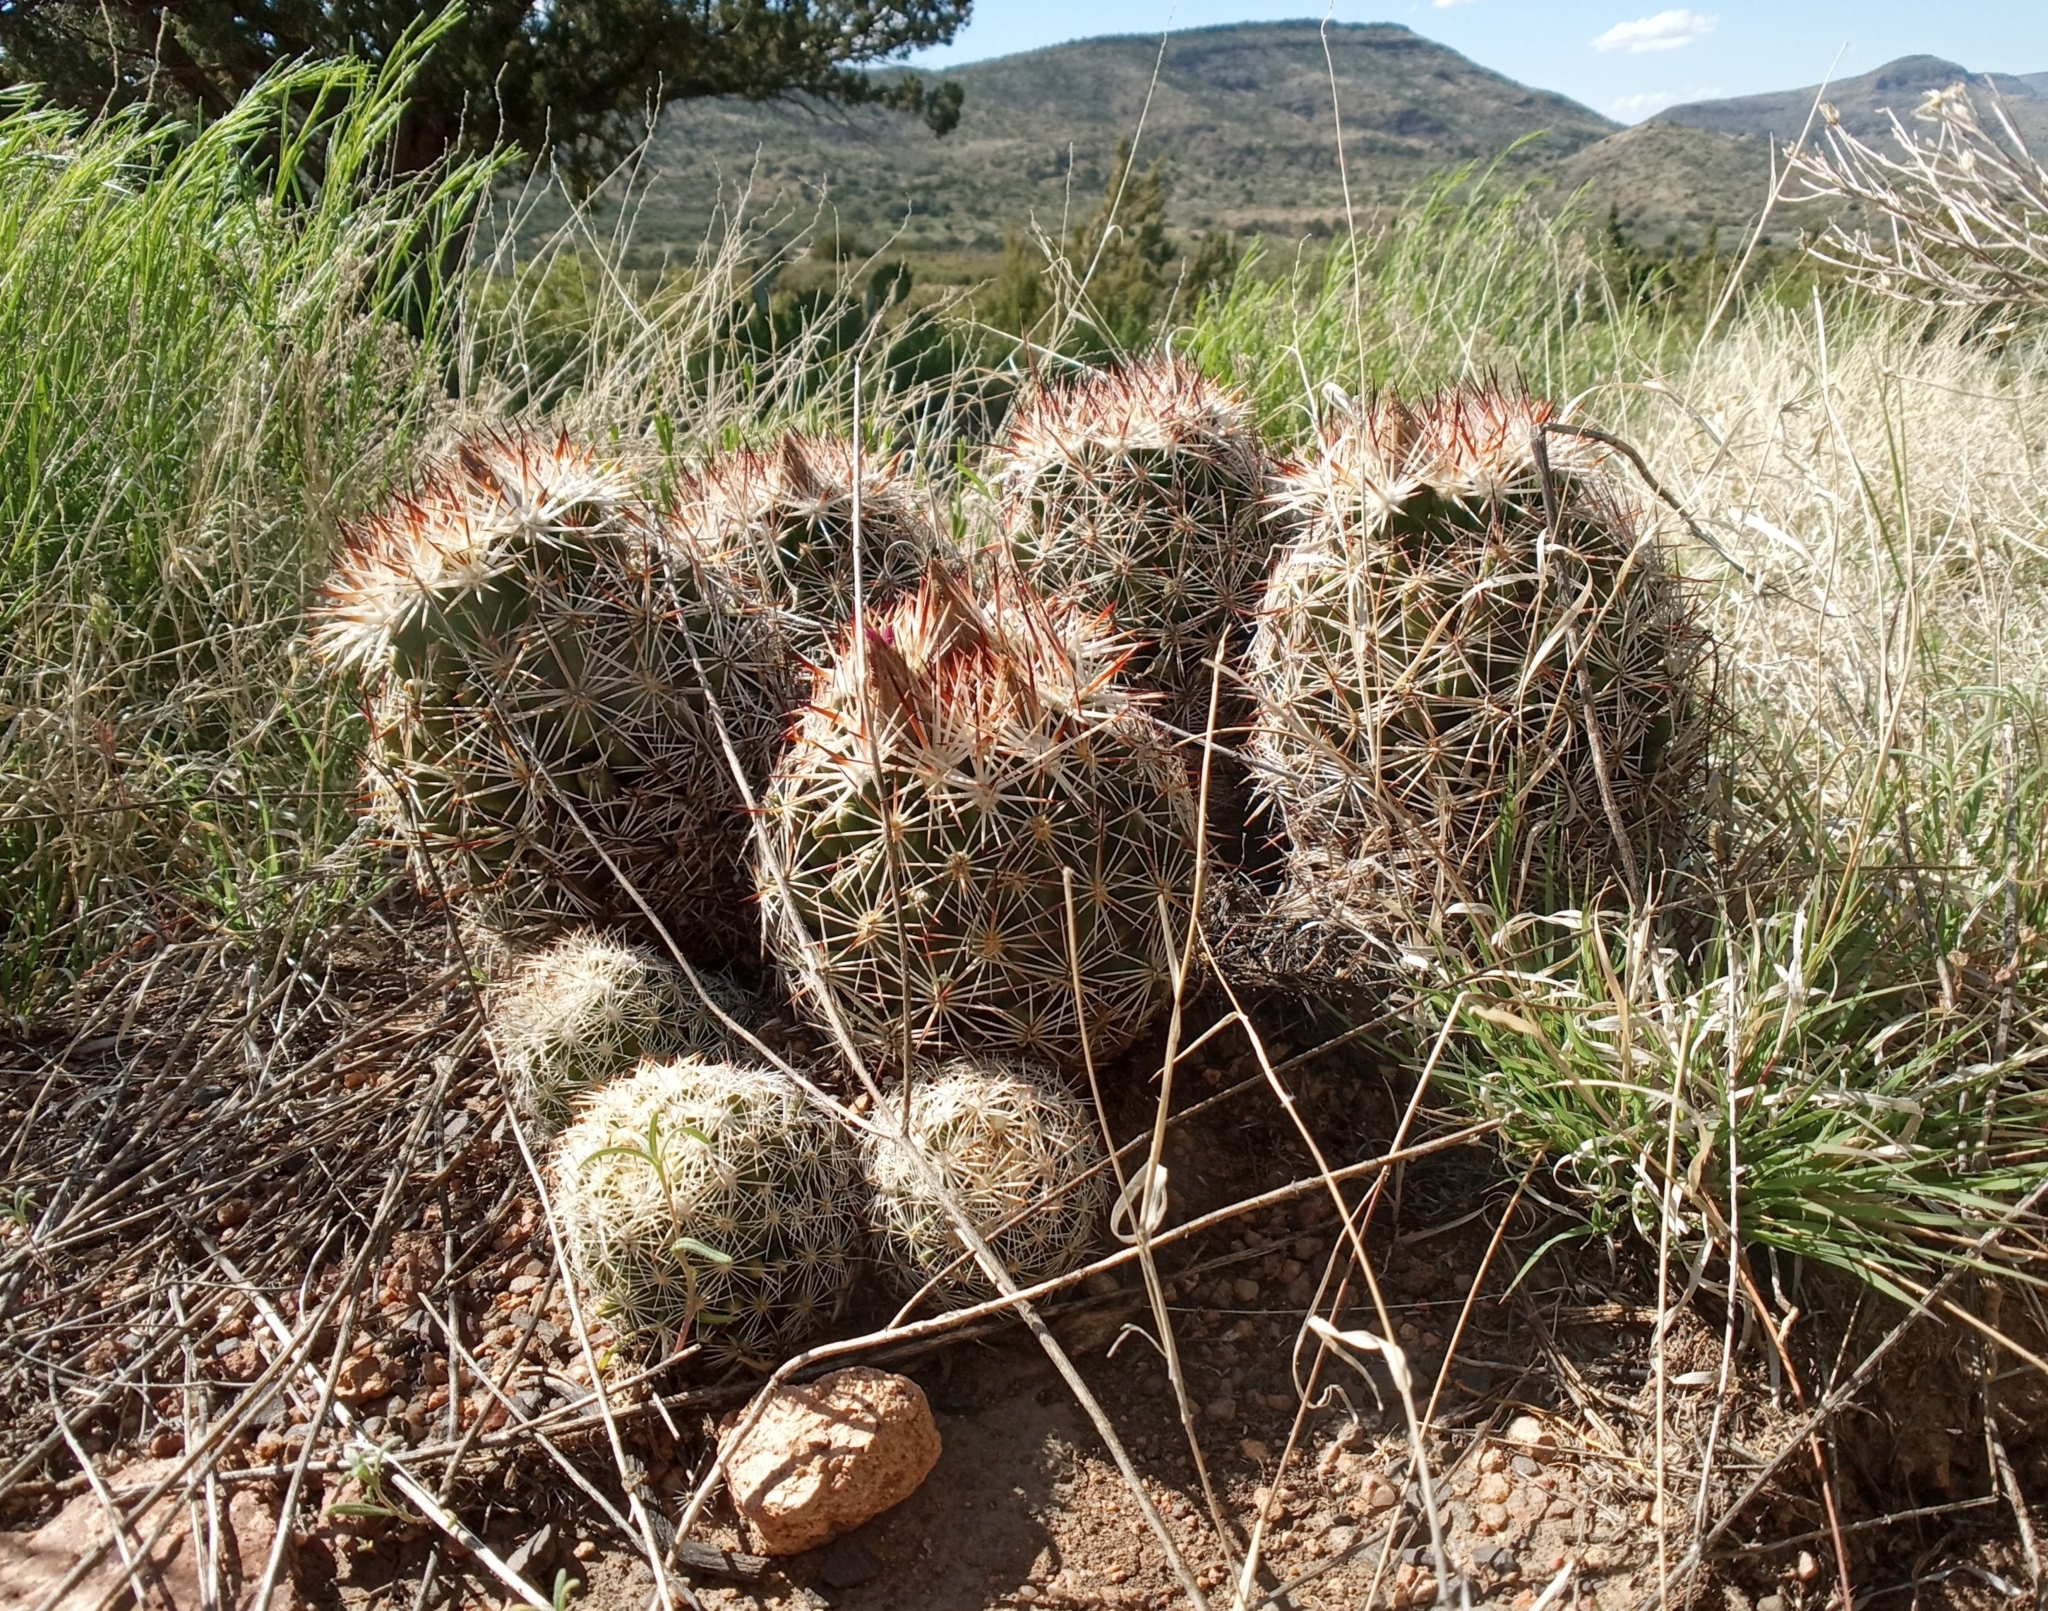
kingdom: Plantae
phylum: Tracheophyta
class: Magnoliopsida
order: Caryophyllales
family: Cactaceae
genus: Pelecyphora
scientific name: Pelecyphora vivipara
